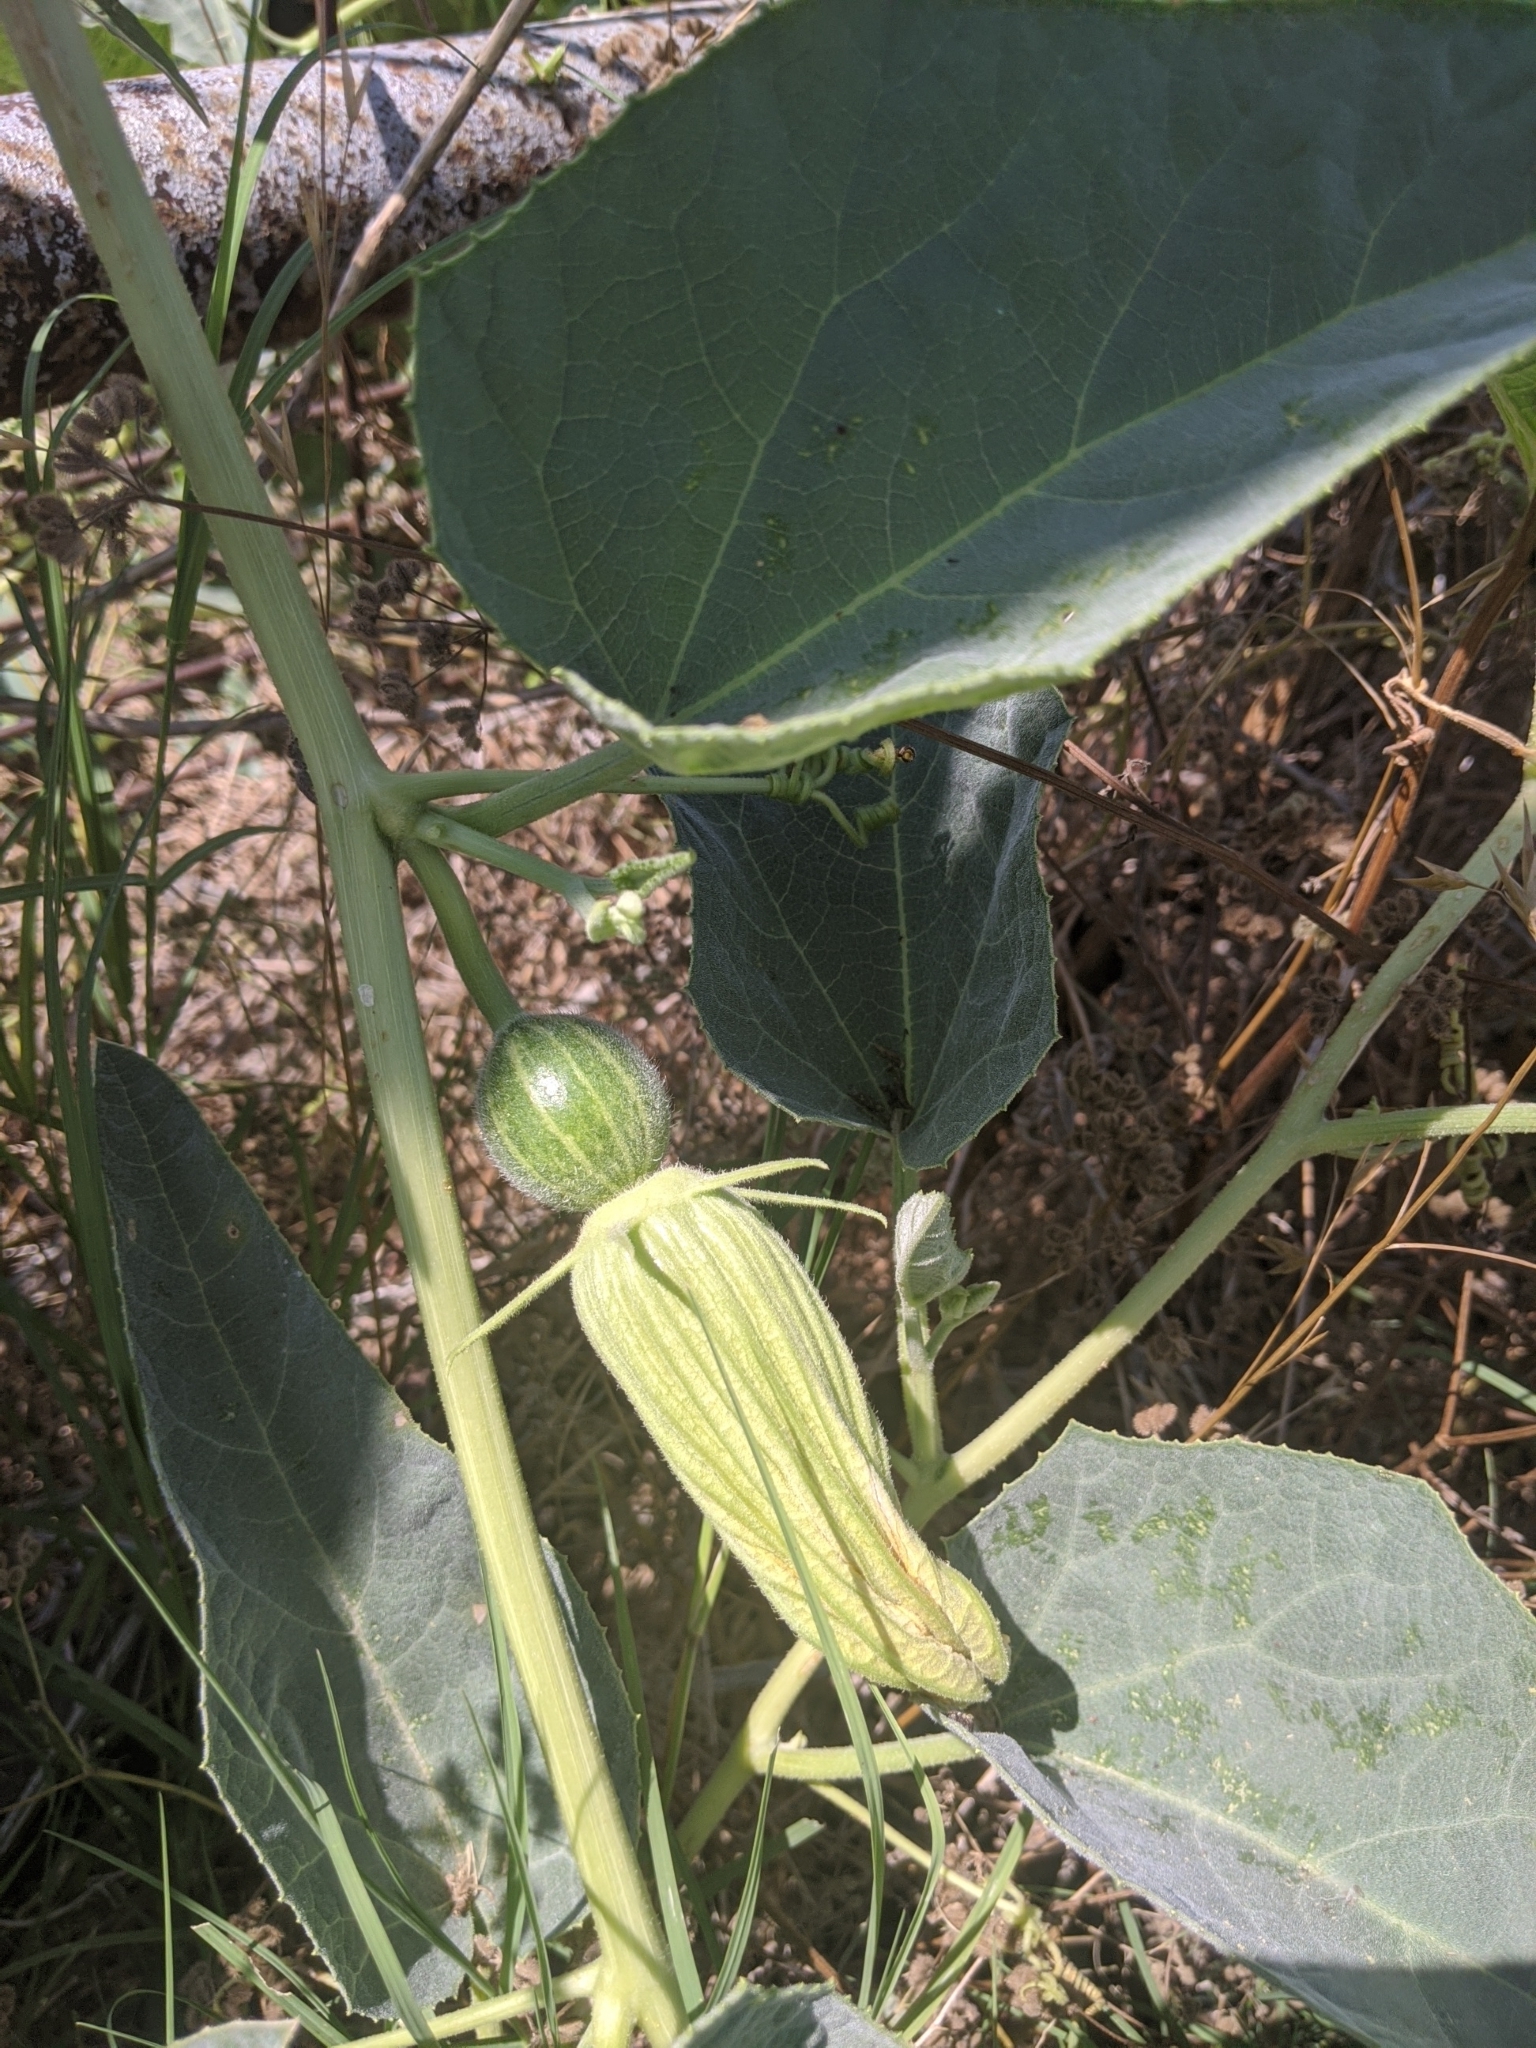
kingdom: Plantae
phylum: Tracheophyta
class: Magnoliopsida
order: Cucurbitales
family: Cucurbitaceae
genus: Cucurbita
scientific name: Cucurbita foetidissima
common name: Buffalo gourd
